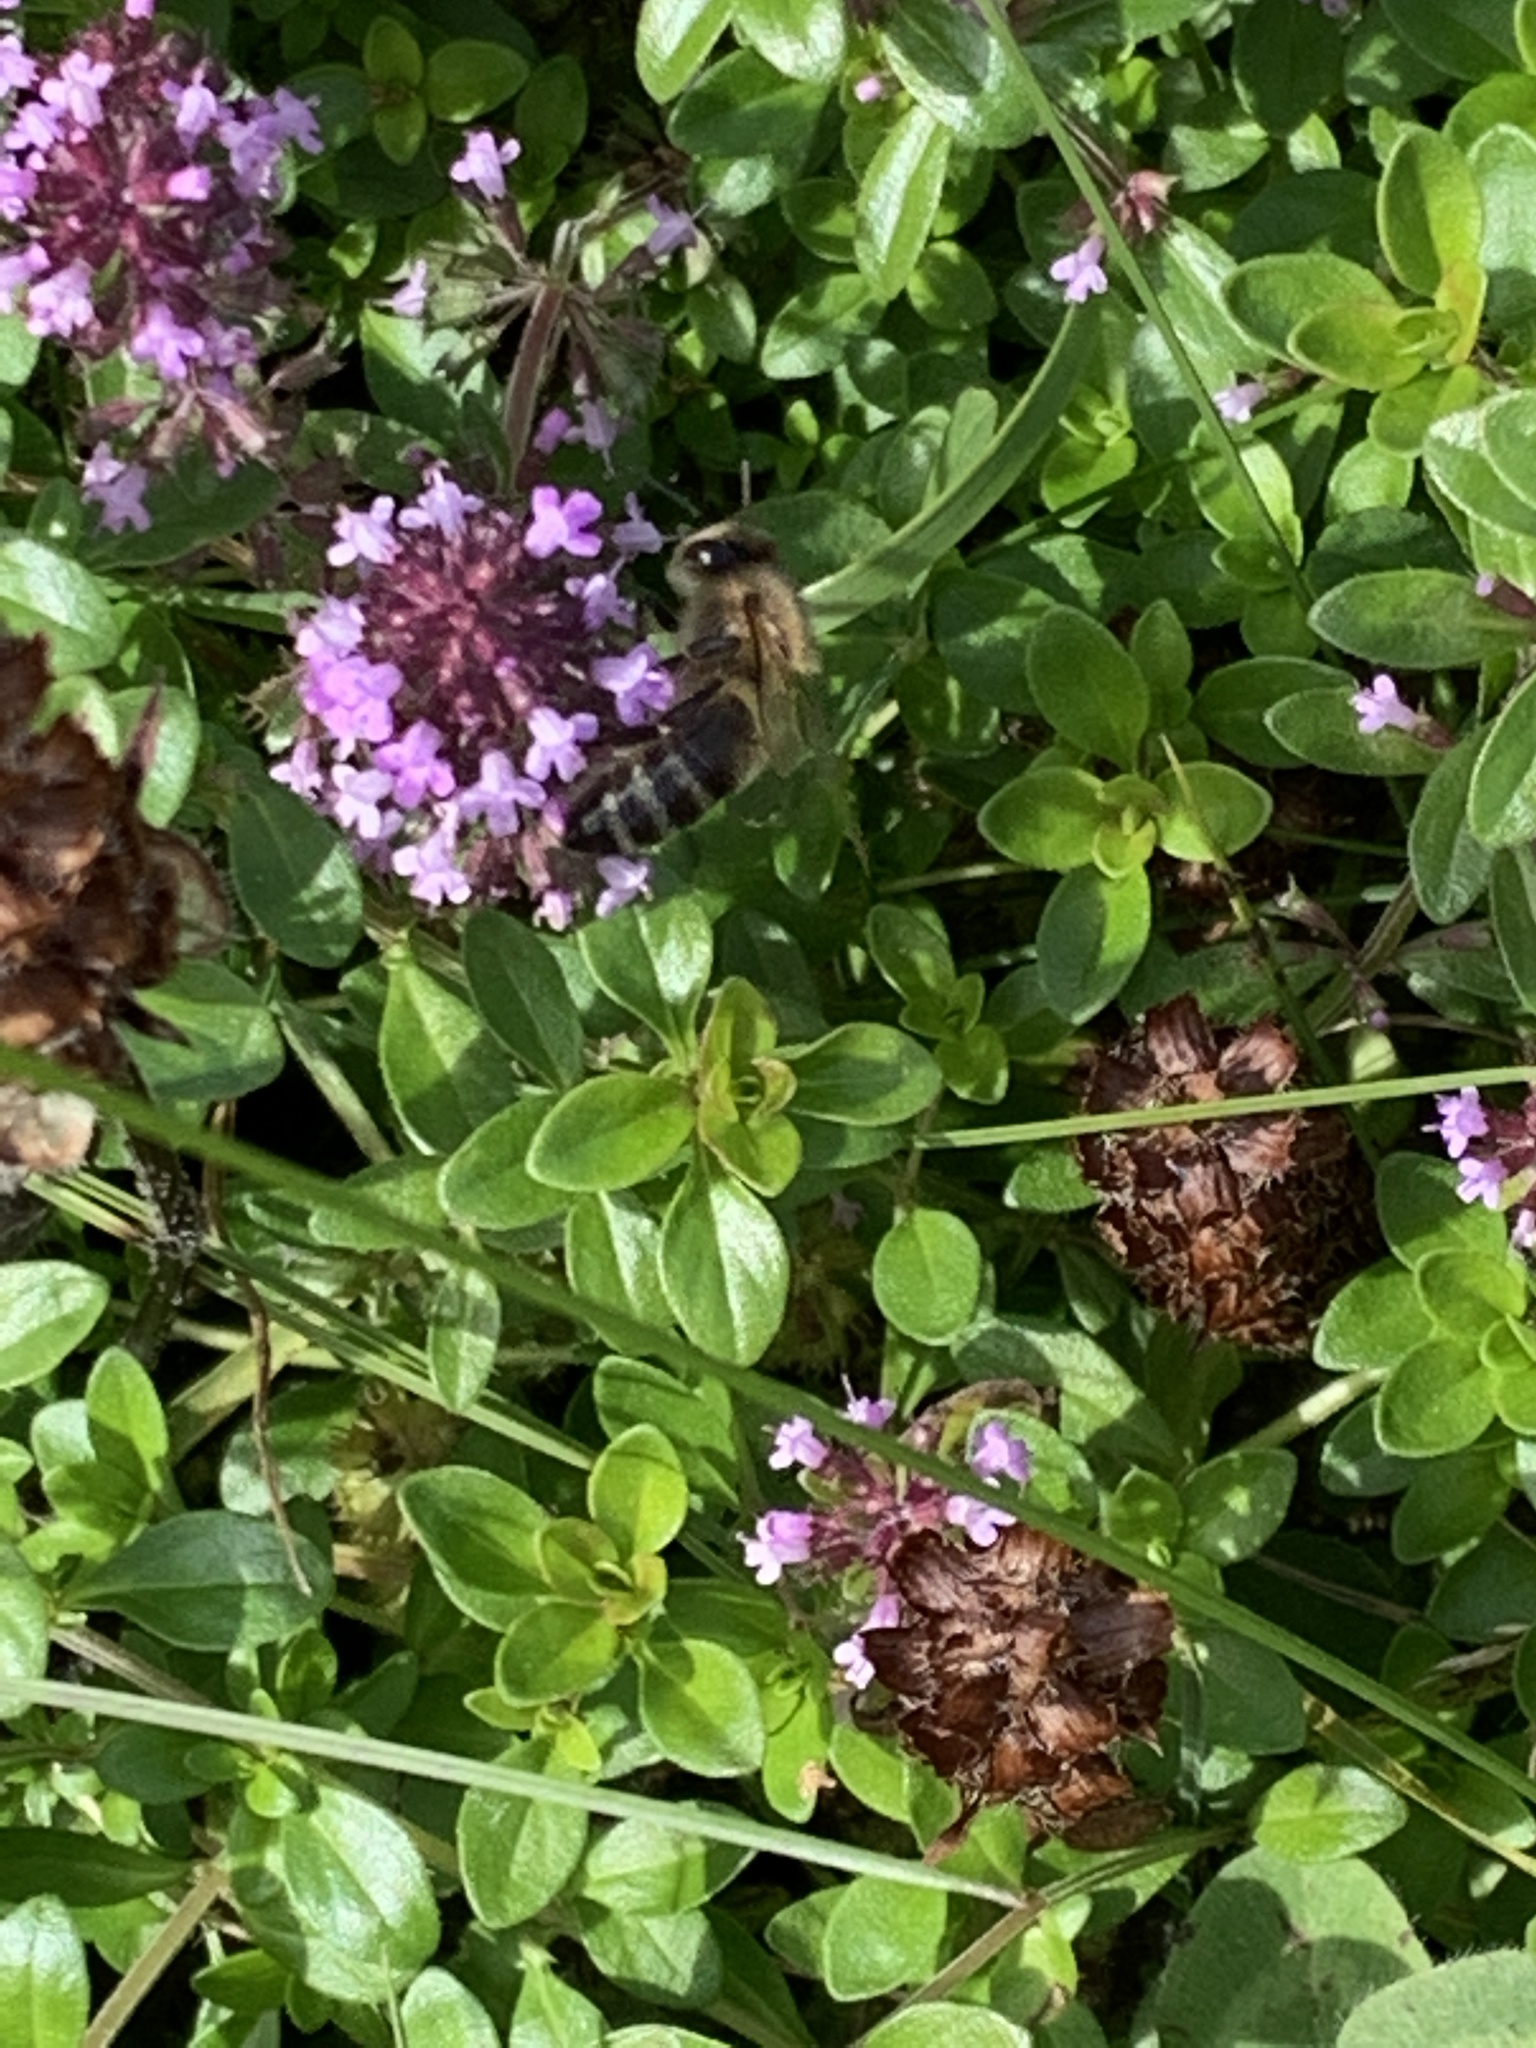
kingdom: Animalia
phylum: Arthropoda
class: Insecta
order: Hymenoptera
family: Apidae
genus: Apis
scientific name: Apis mellifera
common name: Honey bee
